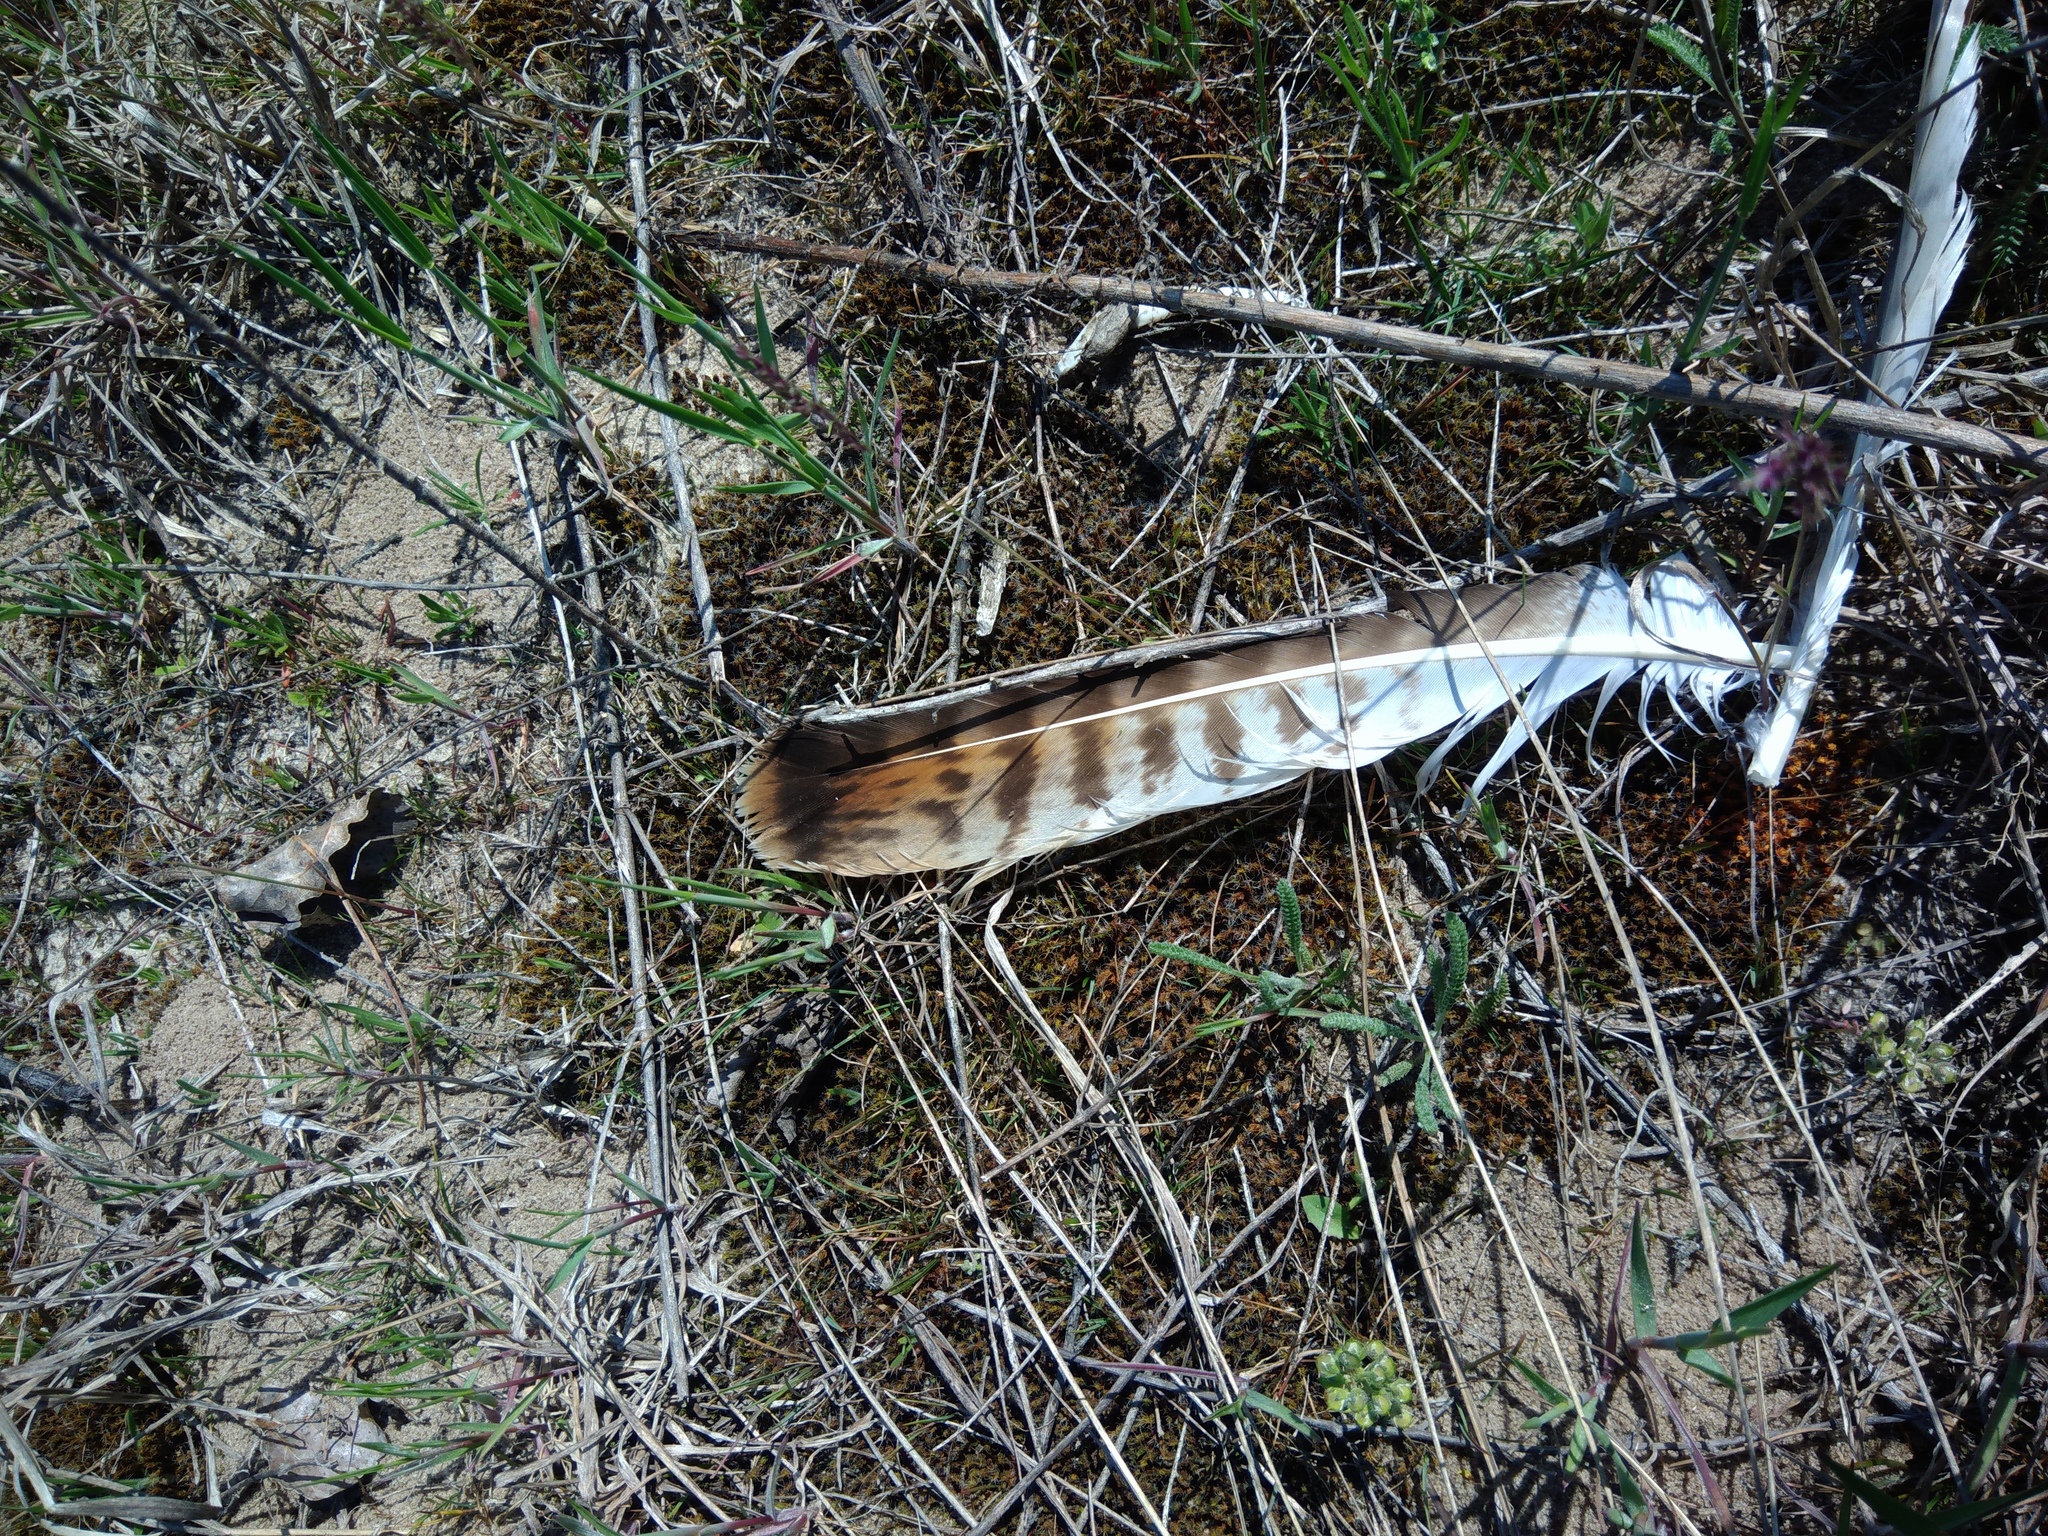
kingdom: Animalia
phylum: Chordata
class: Aves
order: Accipitriformes
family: Accipitridae
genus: Buteo
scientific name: Buteo buteo
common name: Common buzzard
